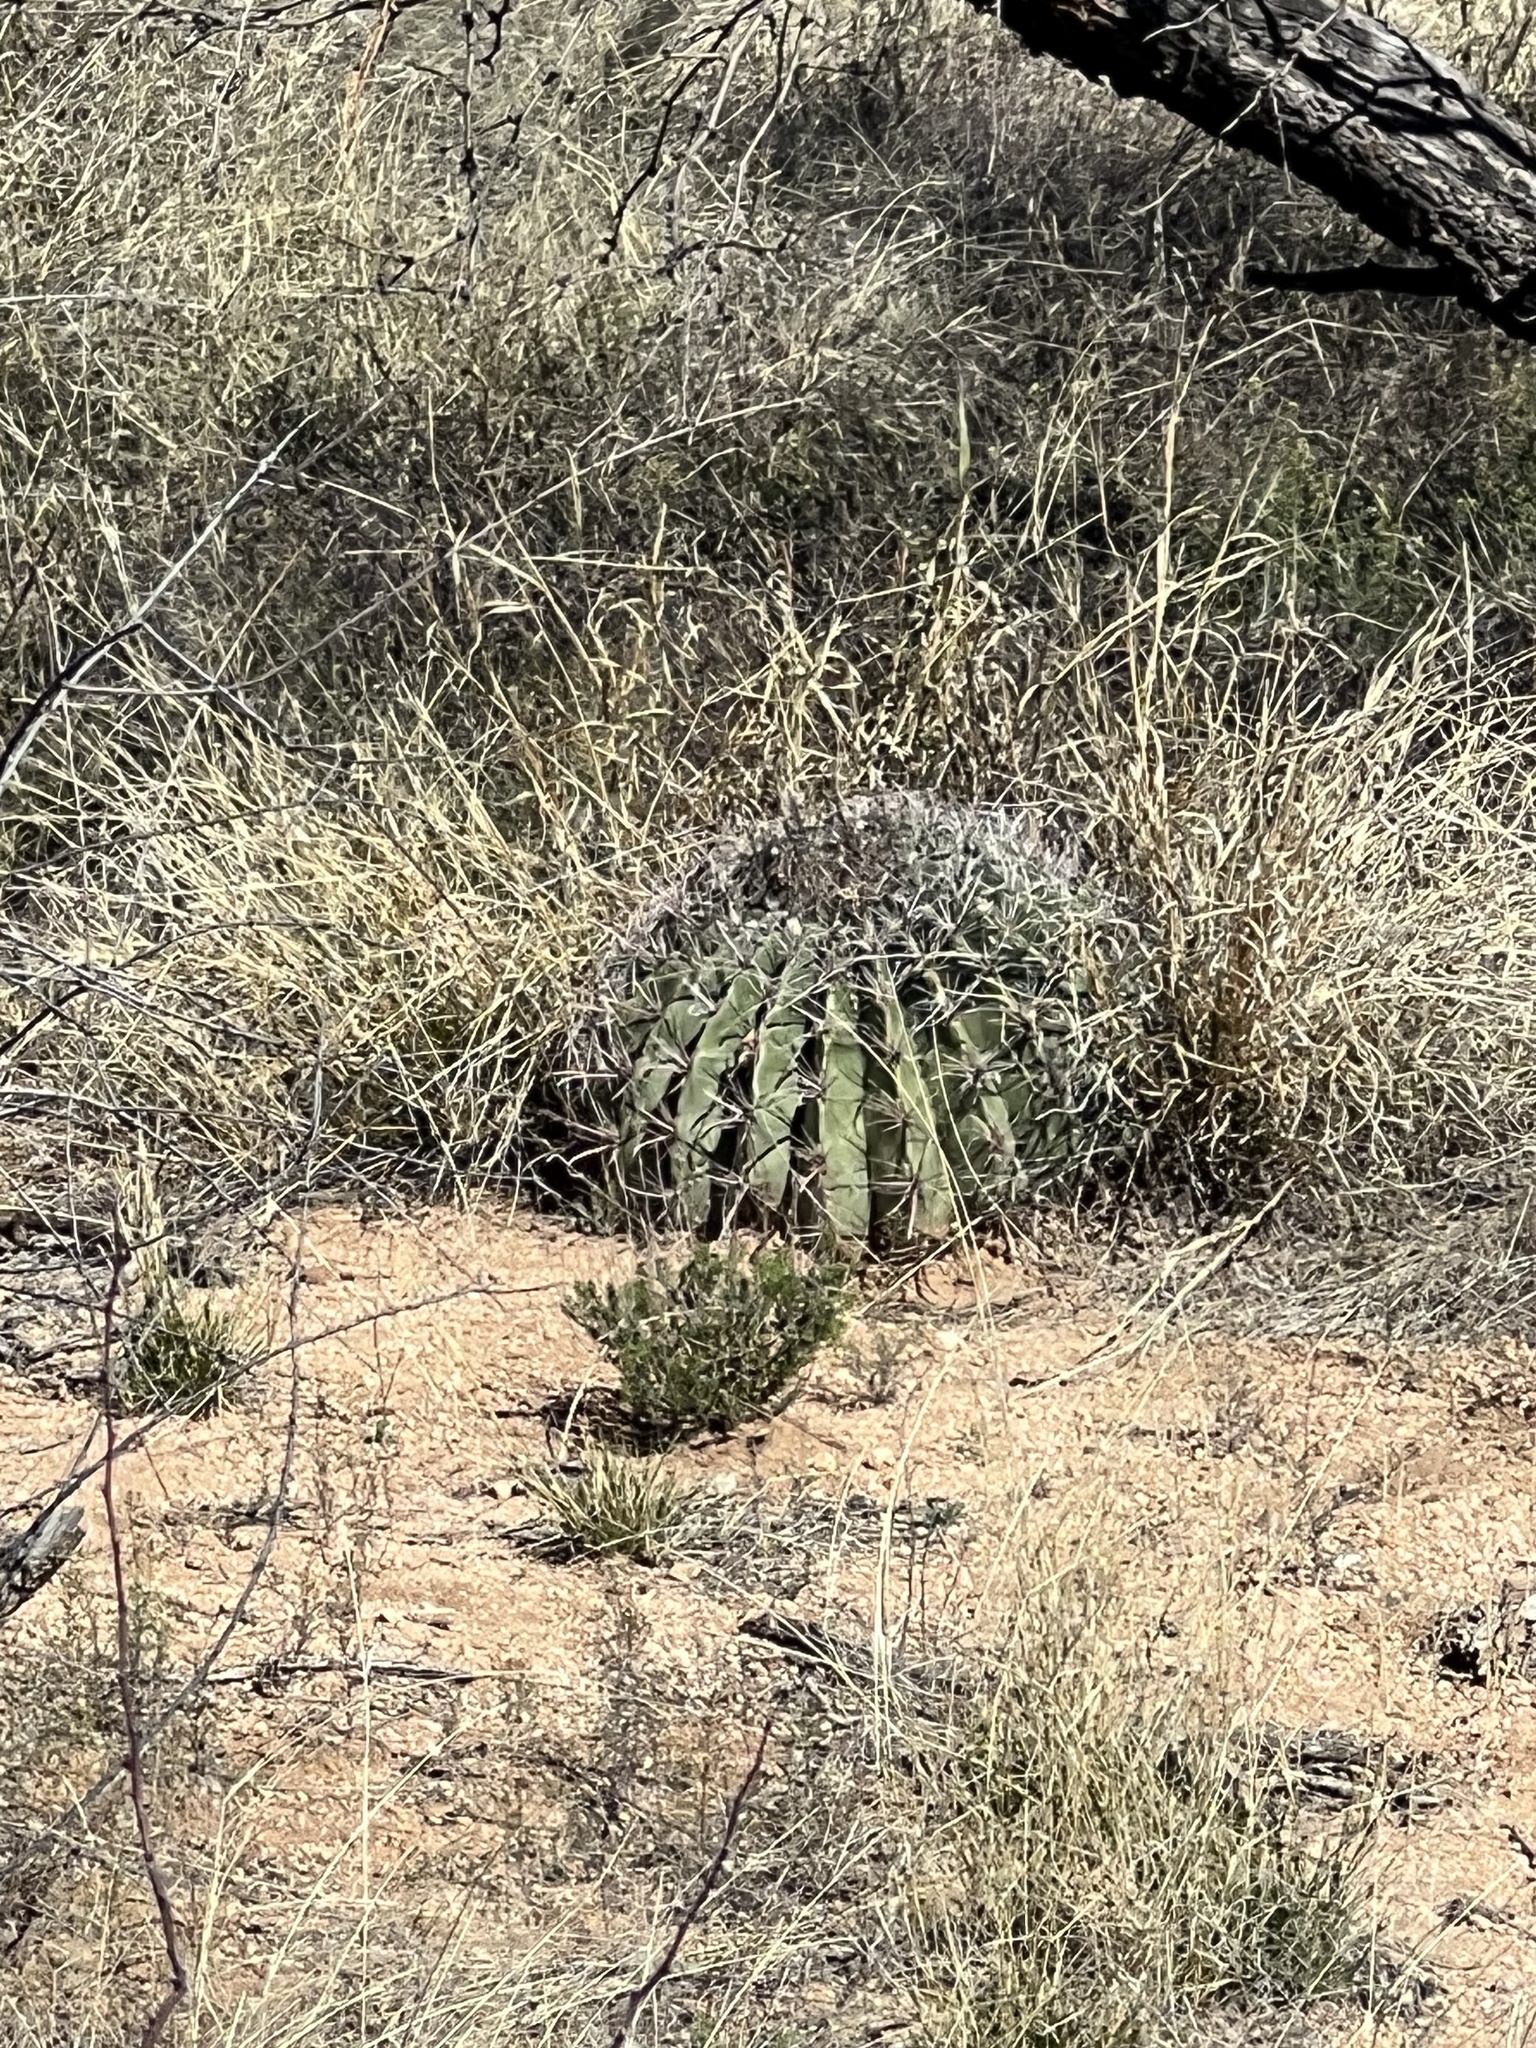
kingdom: Plantae
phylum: Tracheophyta
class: Magnoliopsida
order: Caryophyllales
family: Cactaceae
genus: Ferocactus
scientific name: Ferocactus wislizeni
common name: Candy barrel cactus
